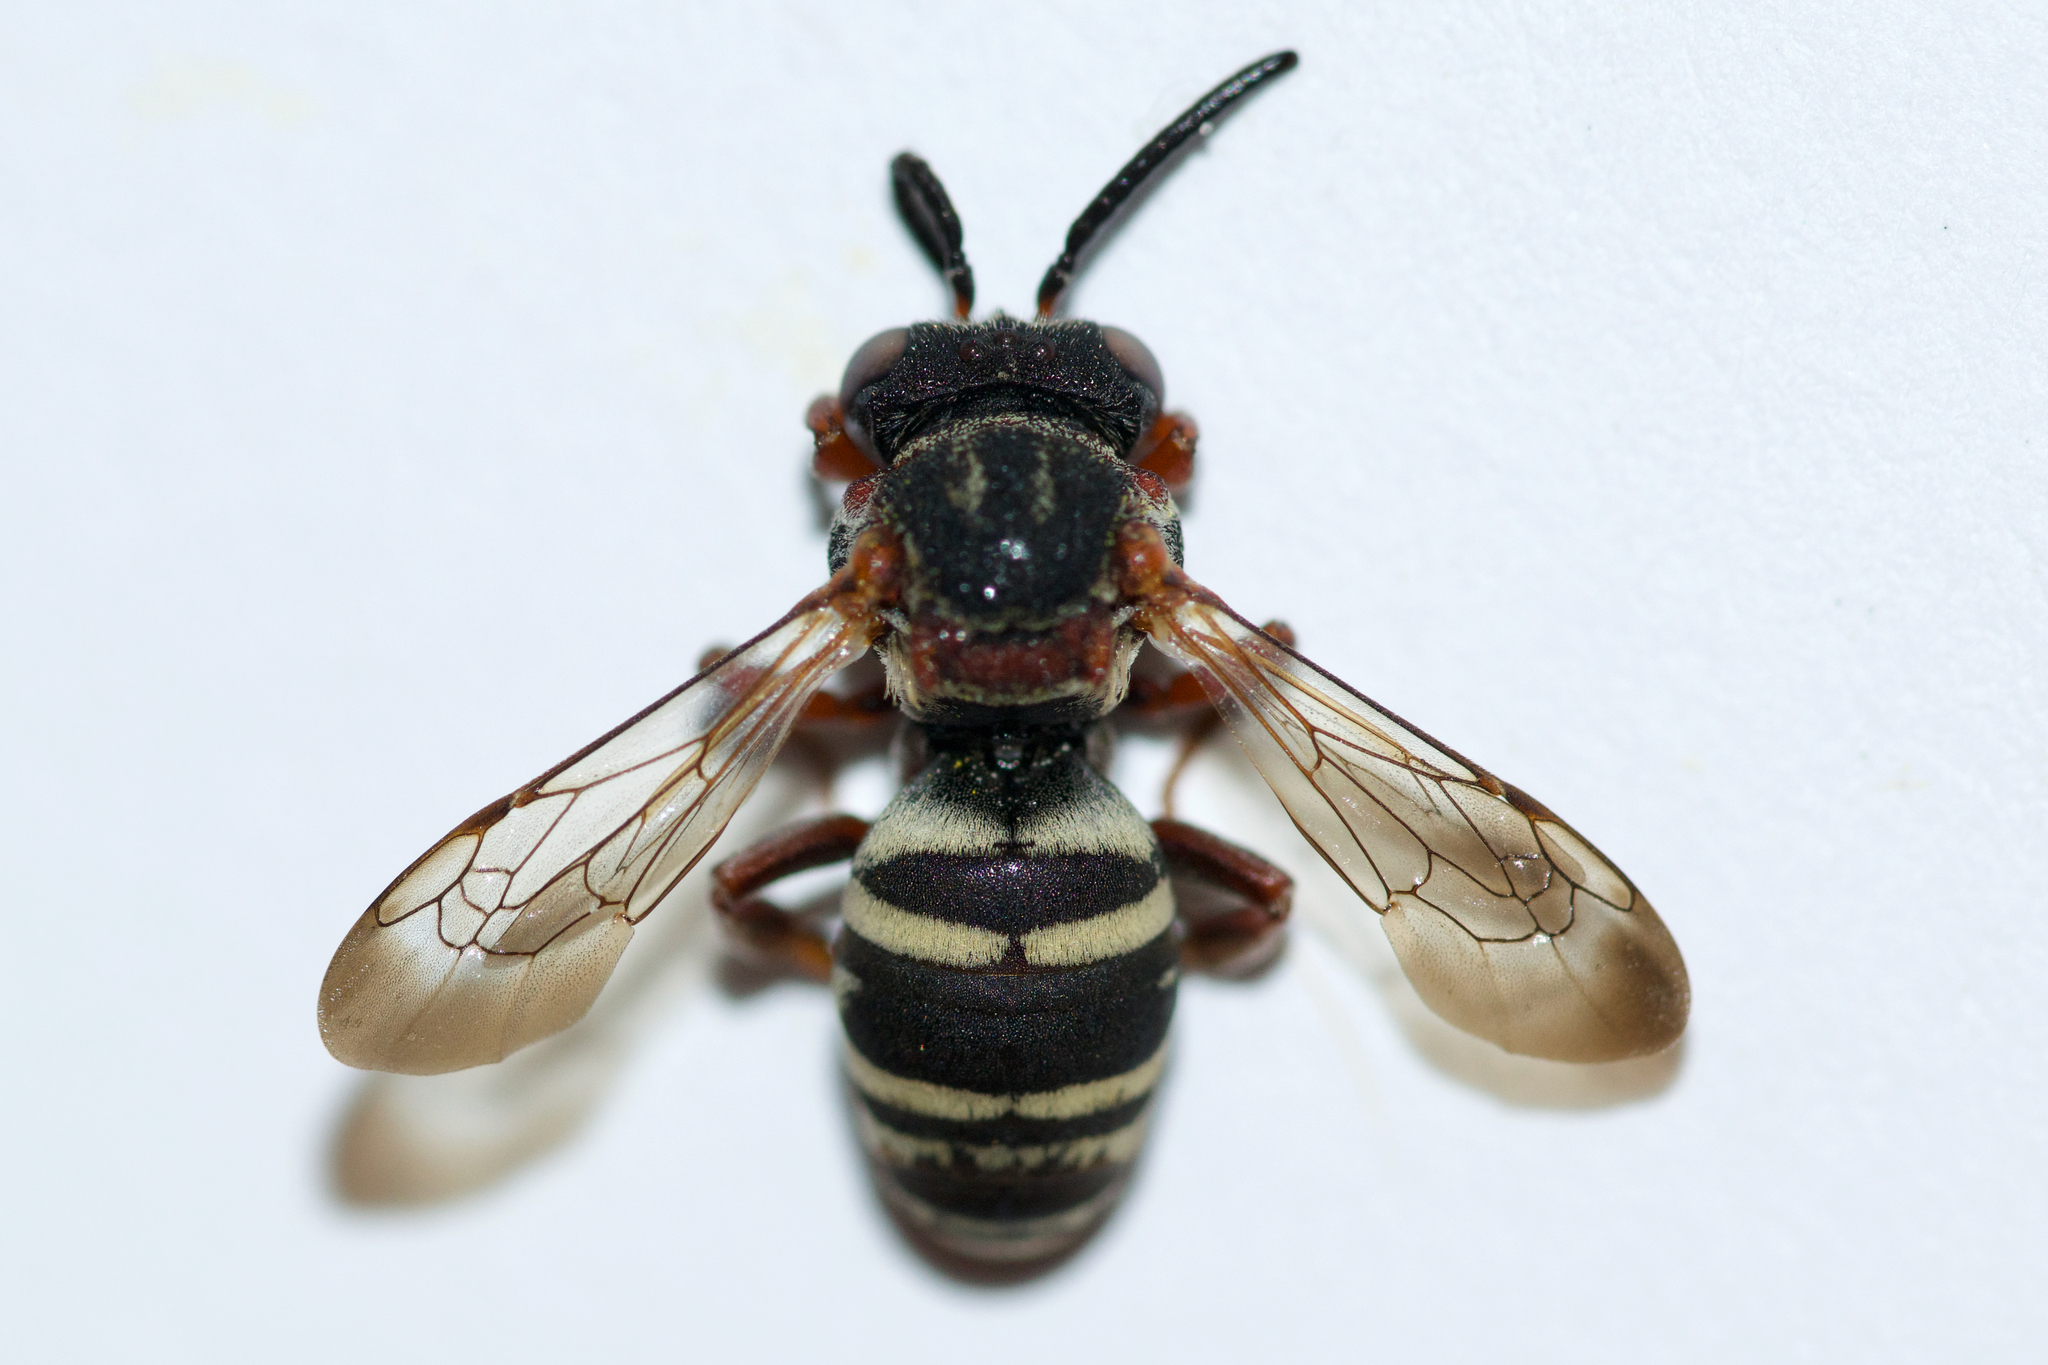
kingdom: Animalia
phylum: Arthropoda
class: Insecta
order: Hymenoptera
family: Apidae
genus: Epeolus
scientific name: Epeolus scutellaris
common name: Notch-backed cellophane-cuckoo bee
